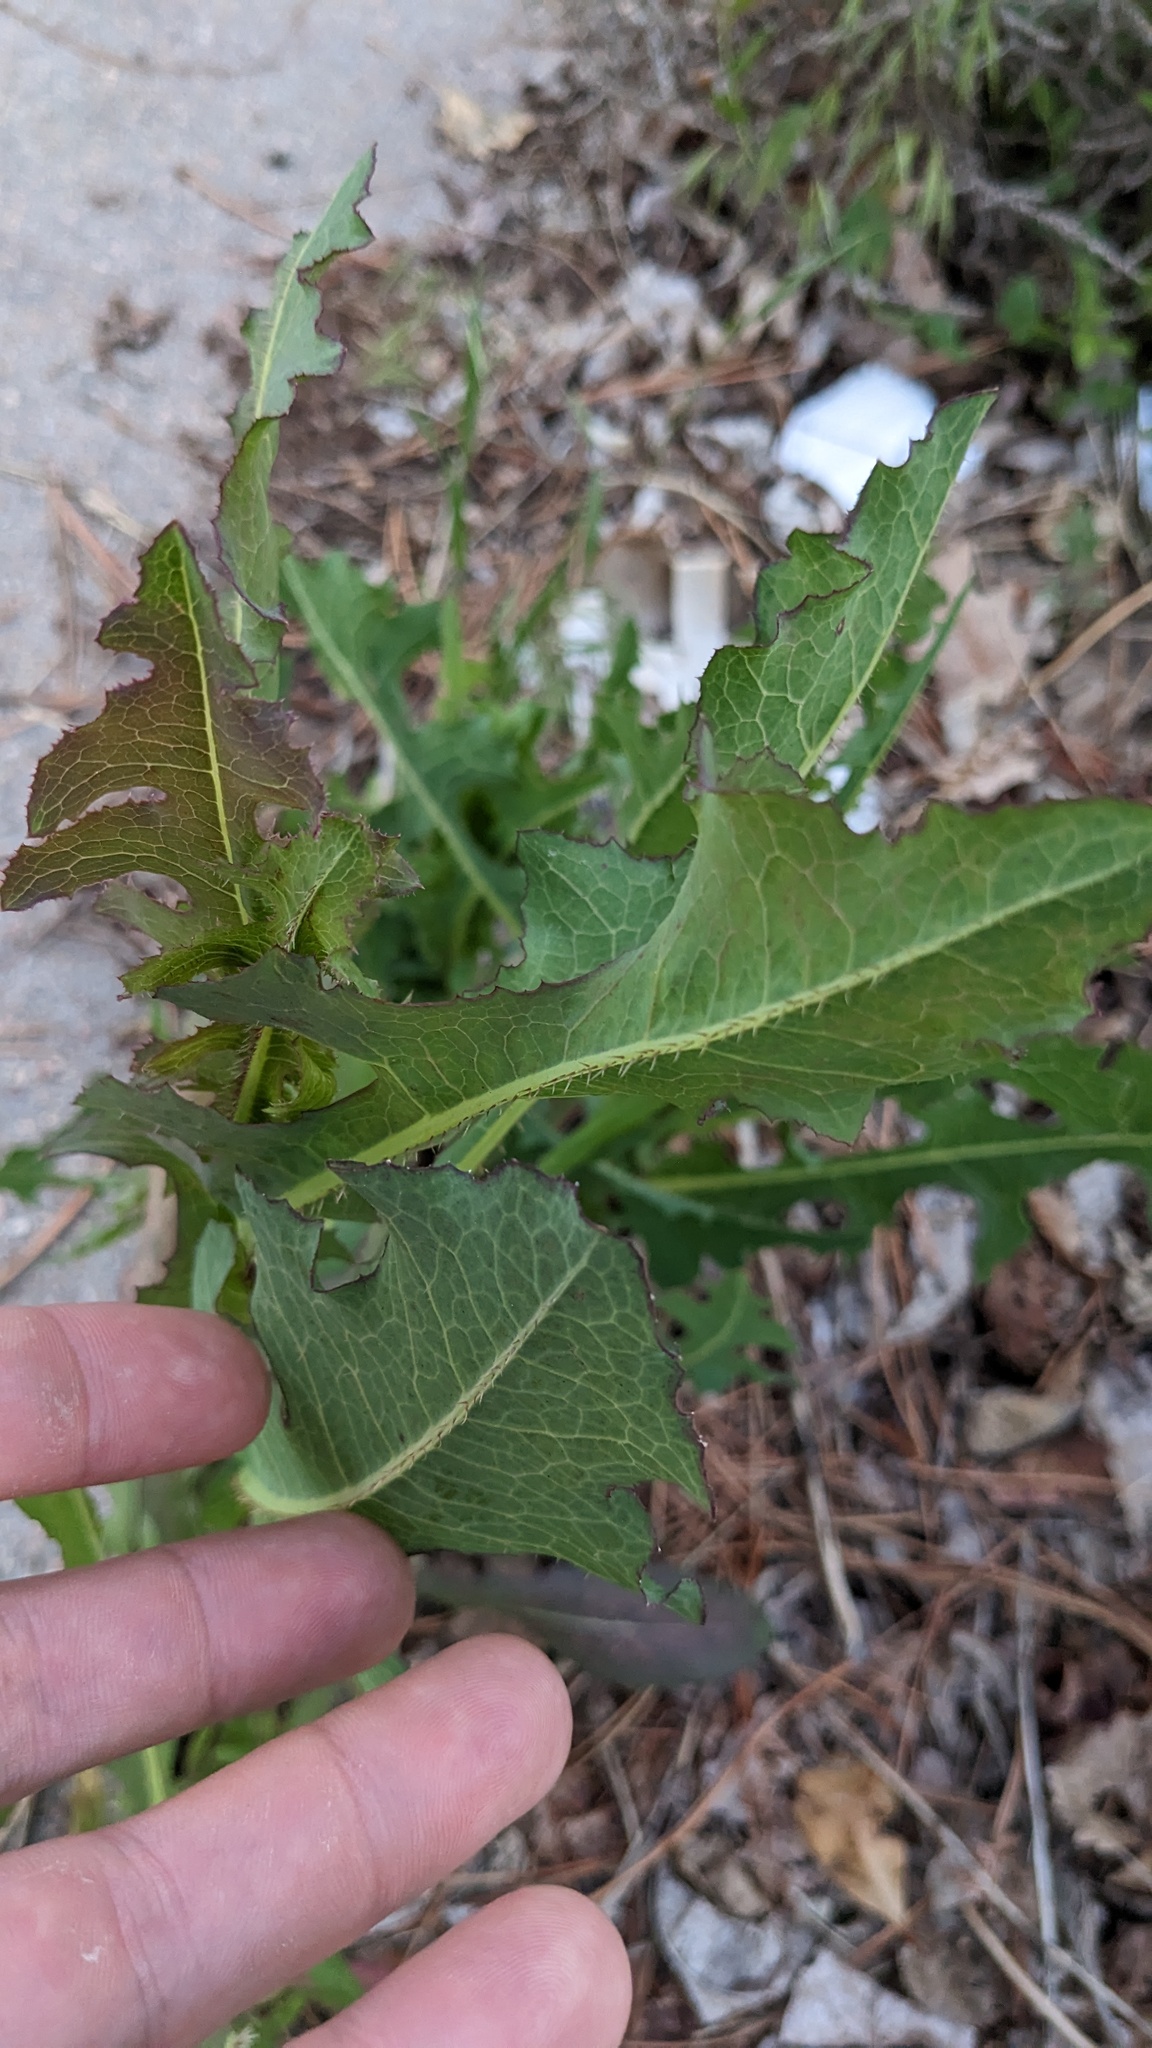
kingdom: Plantae
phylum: Tracheophyta
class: Magnoliopsida
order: Asterales
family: Asteraceae
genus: Lactuca
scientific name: Lactuca serriola
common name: Prickly lettuce
